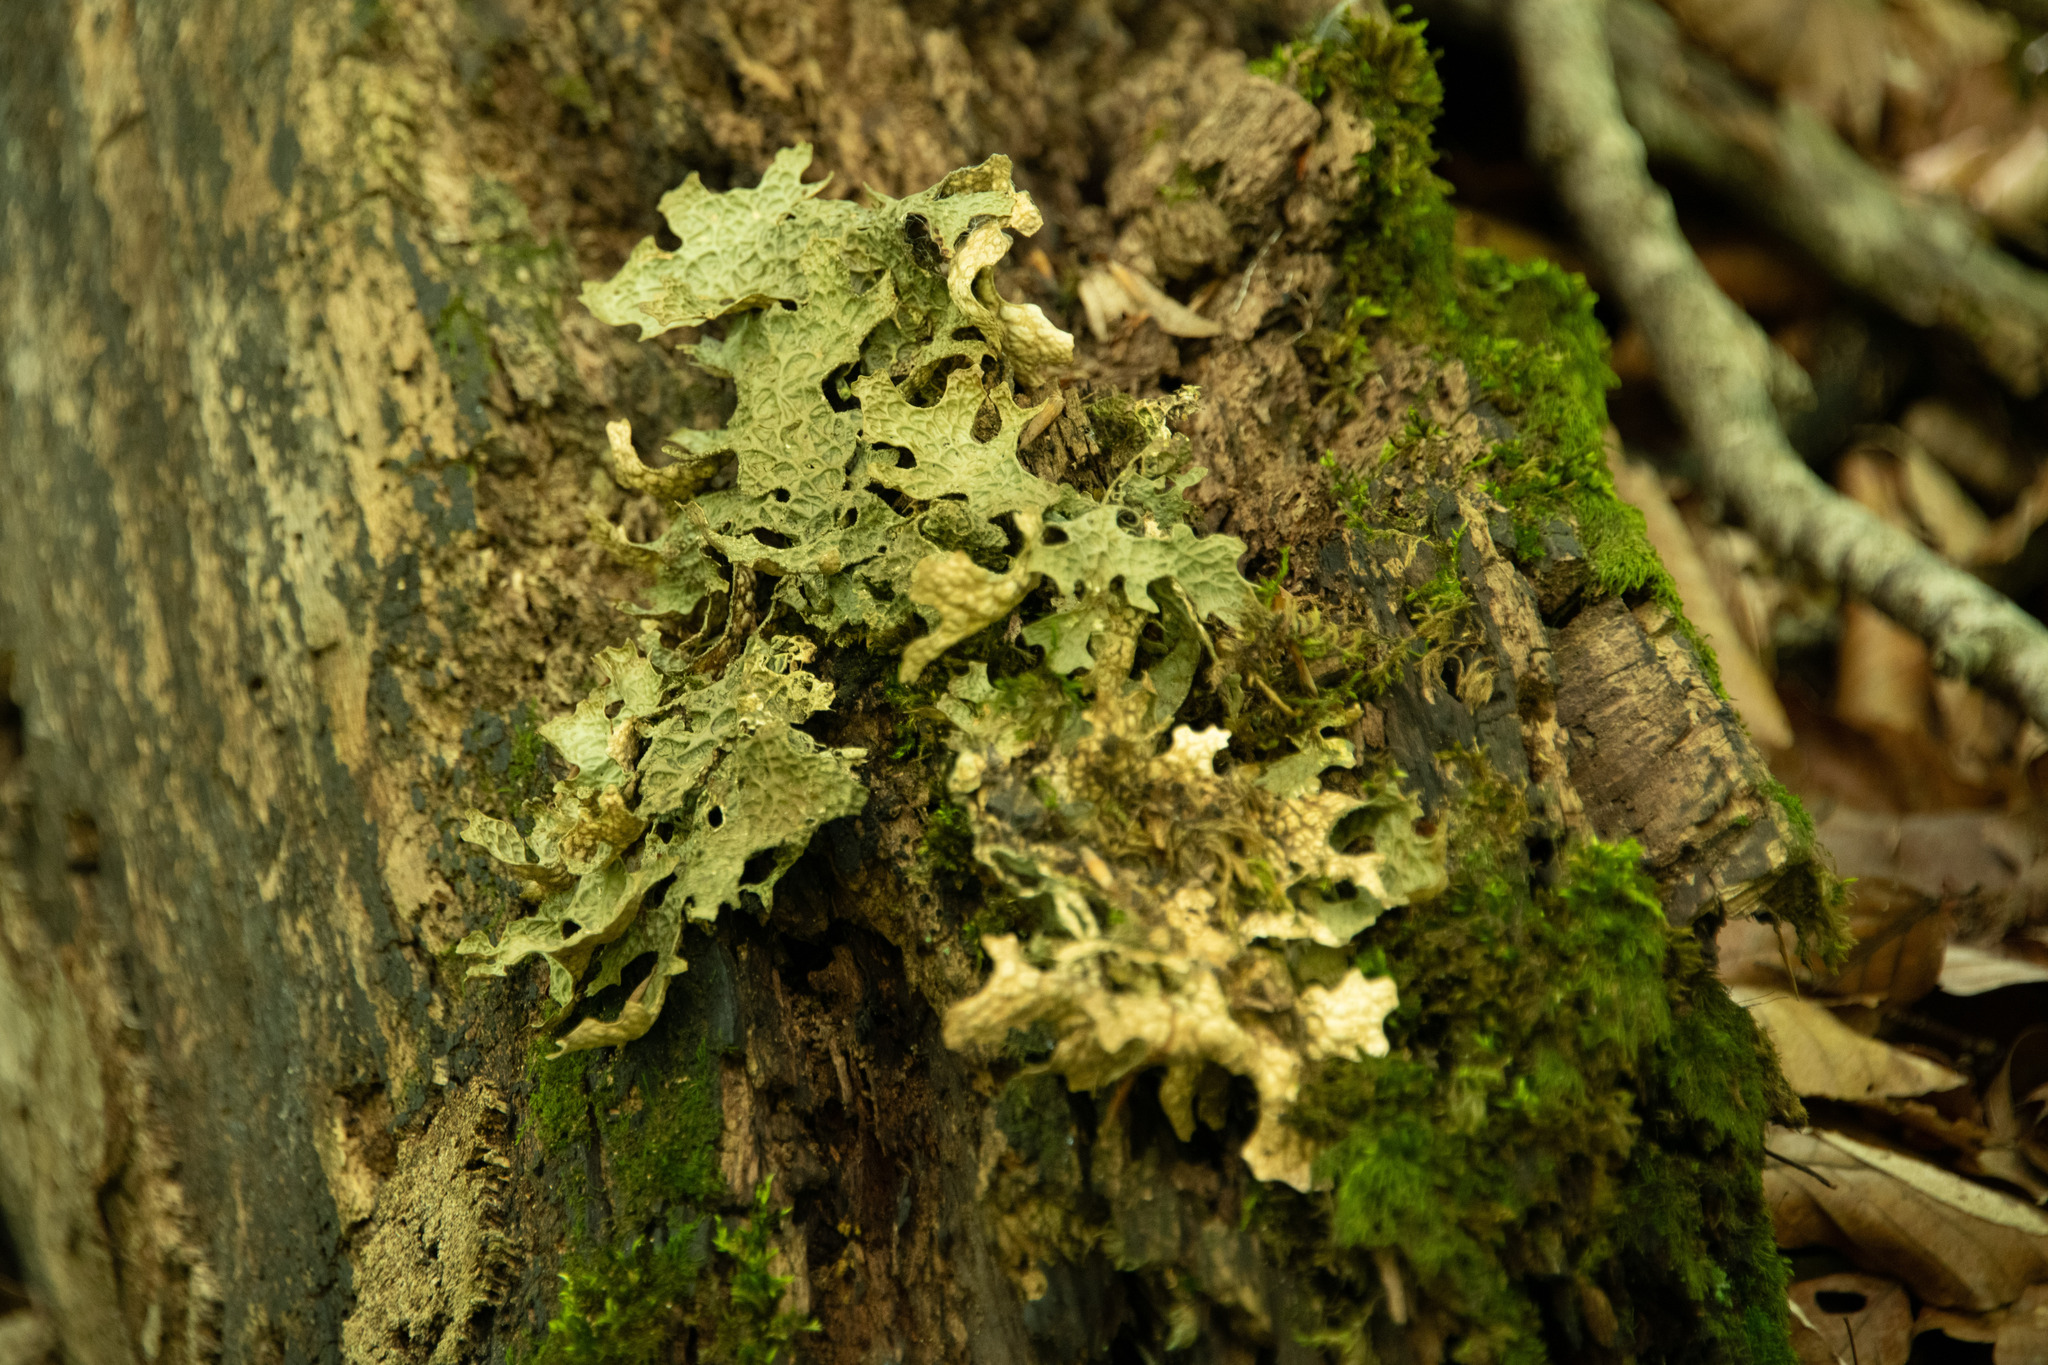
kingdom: Fungi
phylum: Ascomycota
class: Lecanoromycetes
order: Peltigerales
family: Lobariaceae
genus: Lobaria
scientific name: Lobaria pulmonaria
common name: Lungwort
